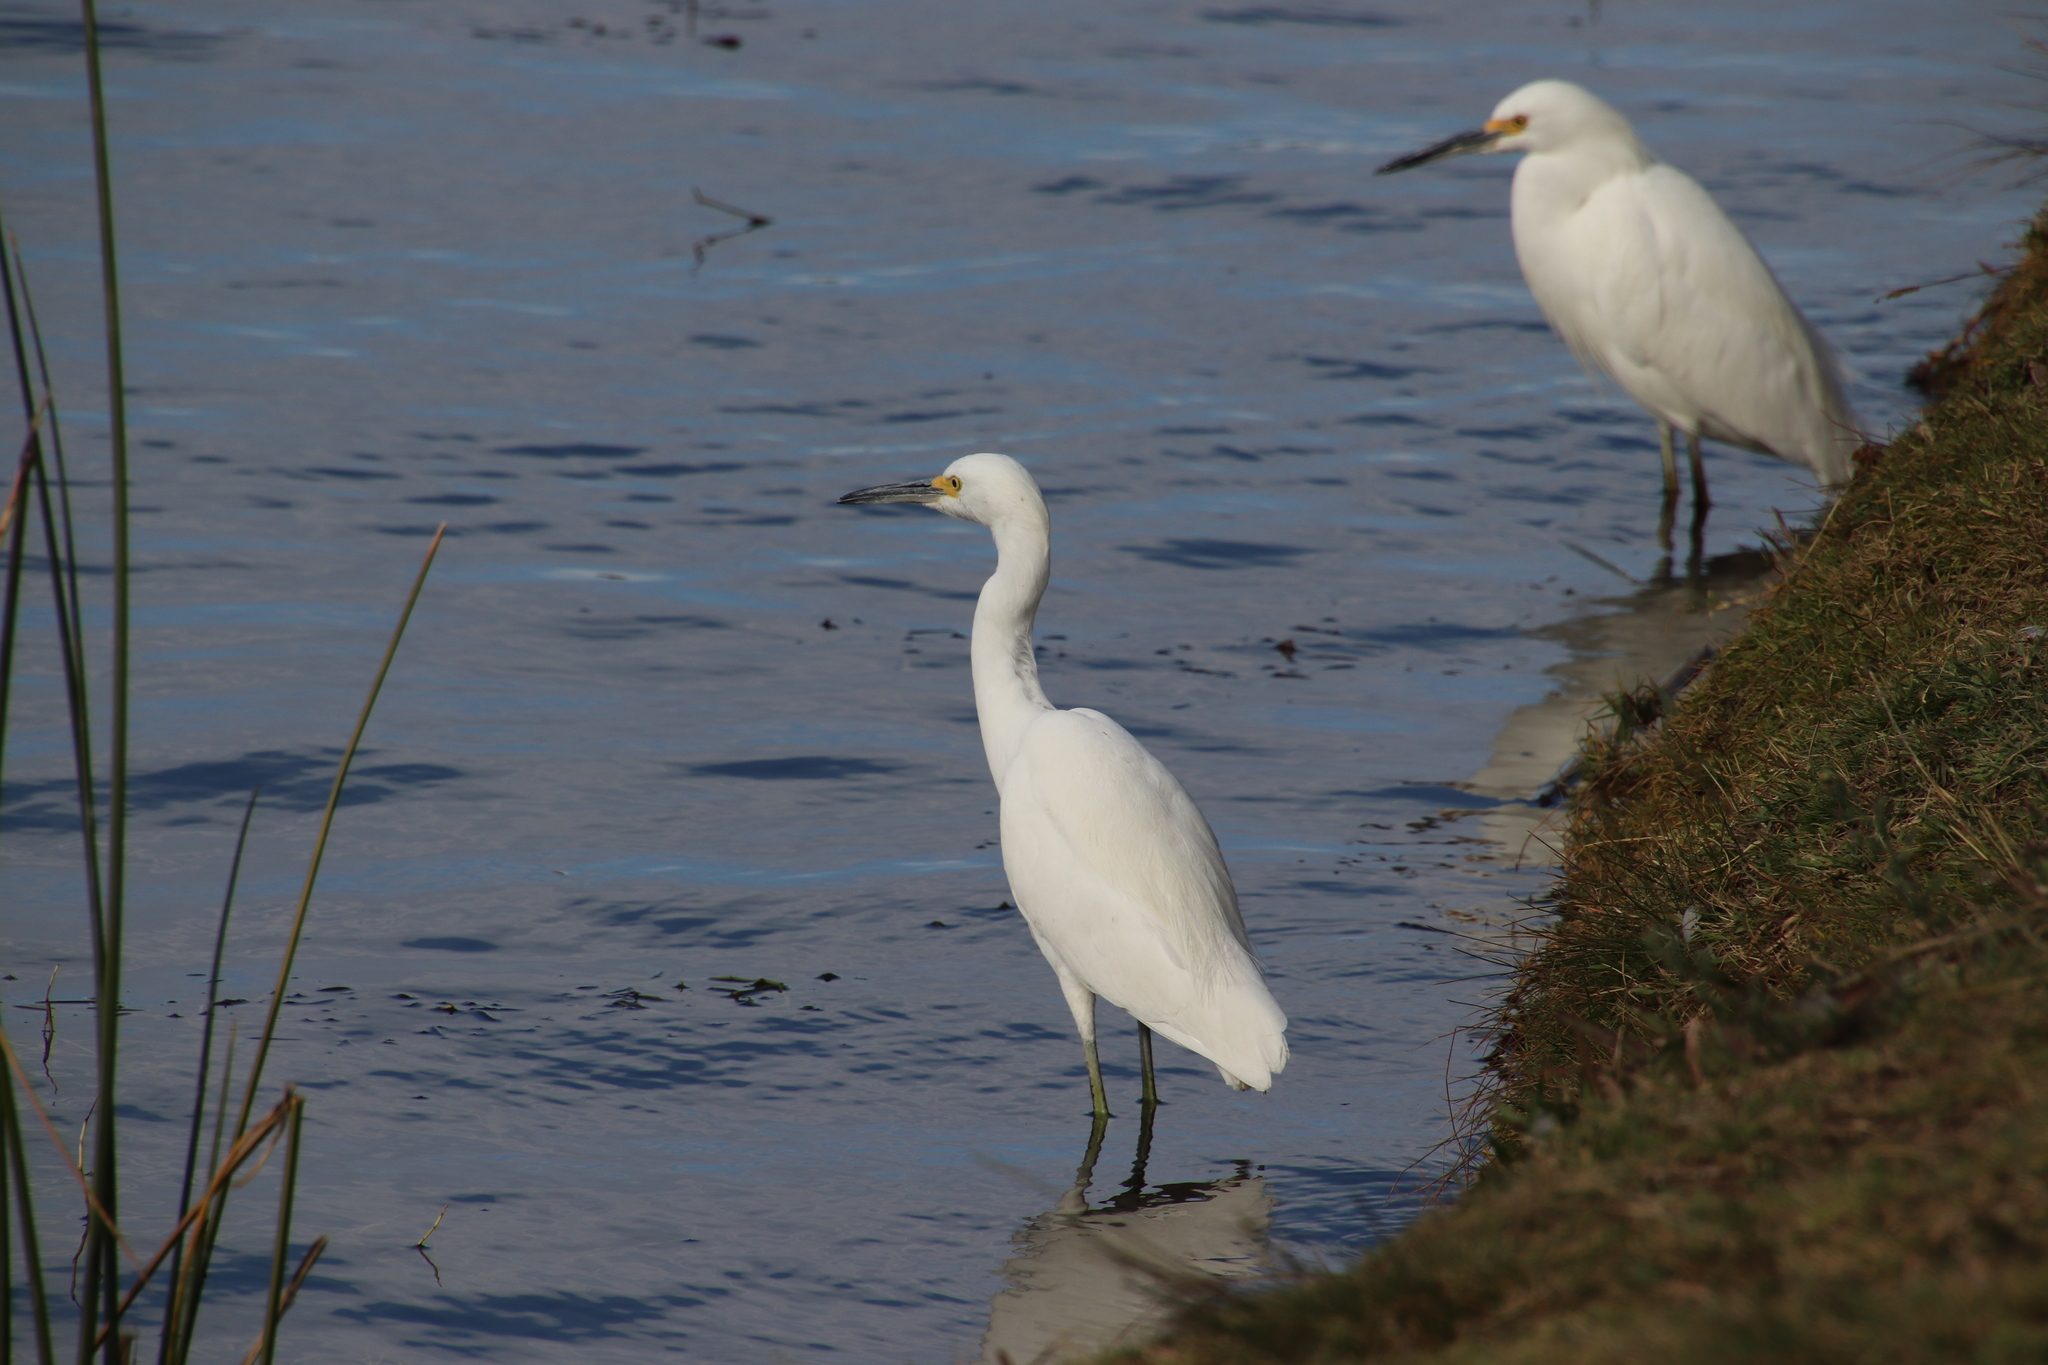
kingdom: Animalia
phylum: Chordata
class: Aves
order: Pelecaniformes
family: Ardeidae
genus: Egretta
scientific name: Egretta thula
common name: Snowy egret
